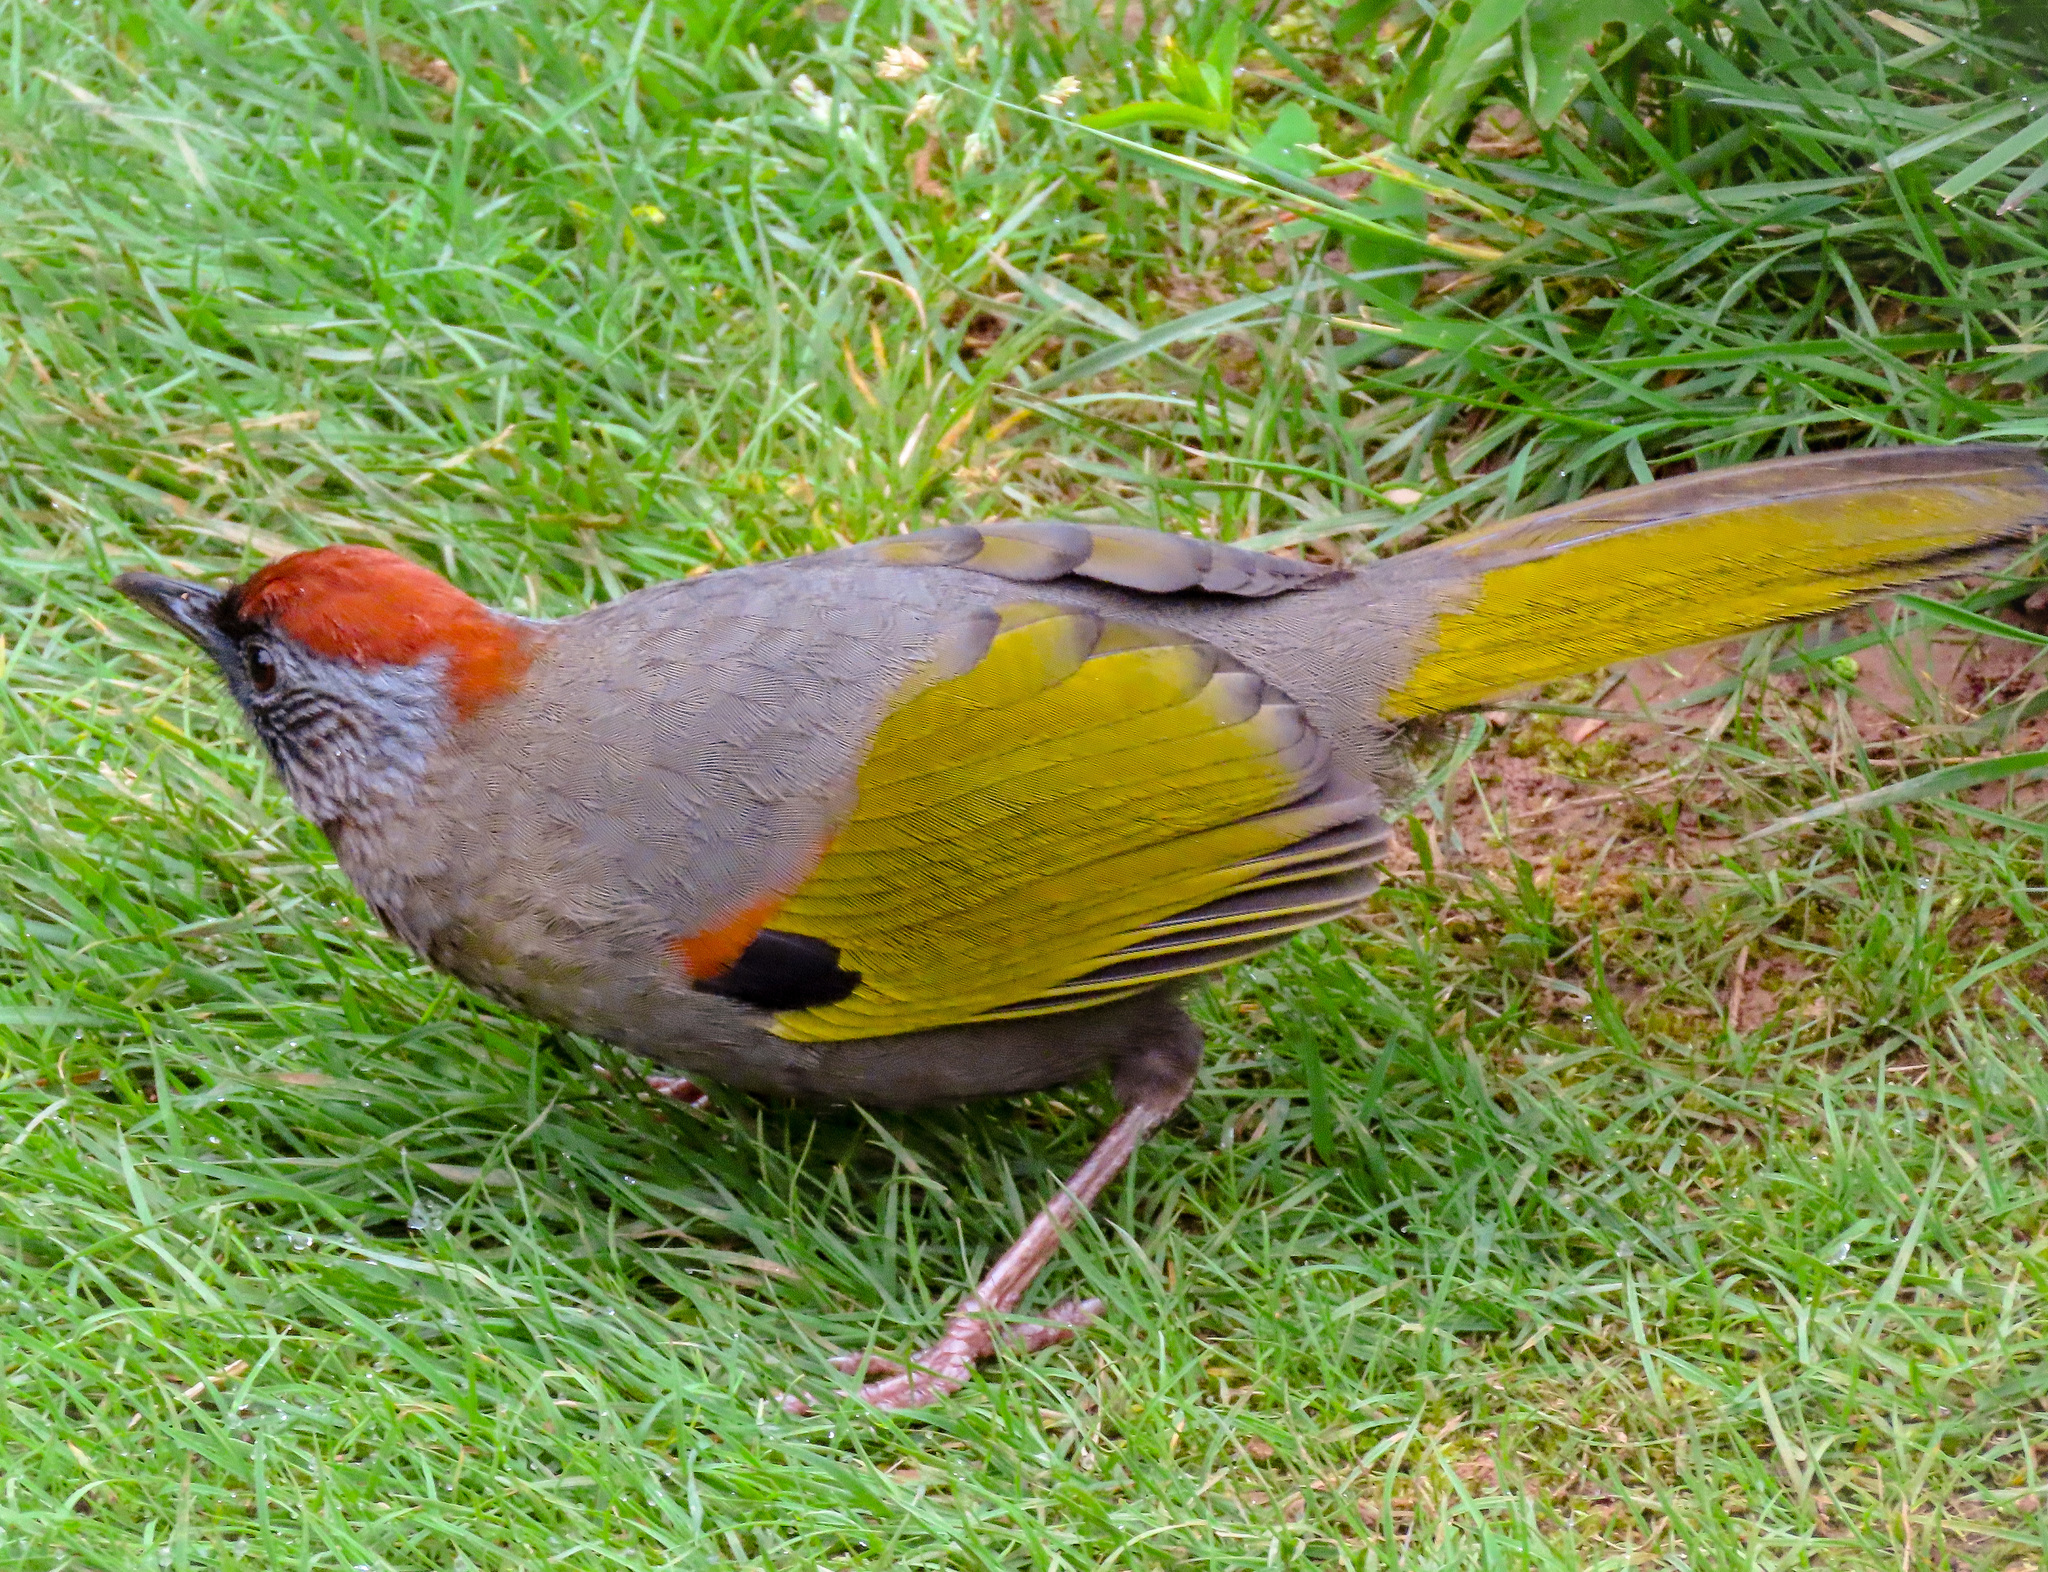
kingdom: Animalia
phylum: Chordata
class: Aves
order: Passeriformes
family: Leiothrichidae
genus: Trochalopteron
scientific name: Trochalopteron melanostigma
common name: Silver-eared laughingthrush
